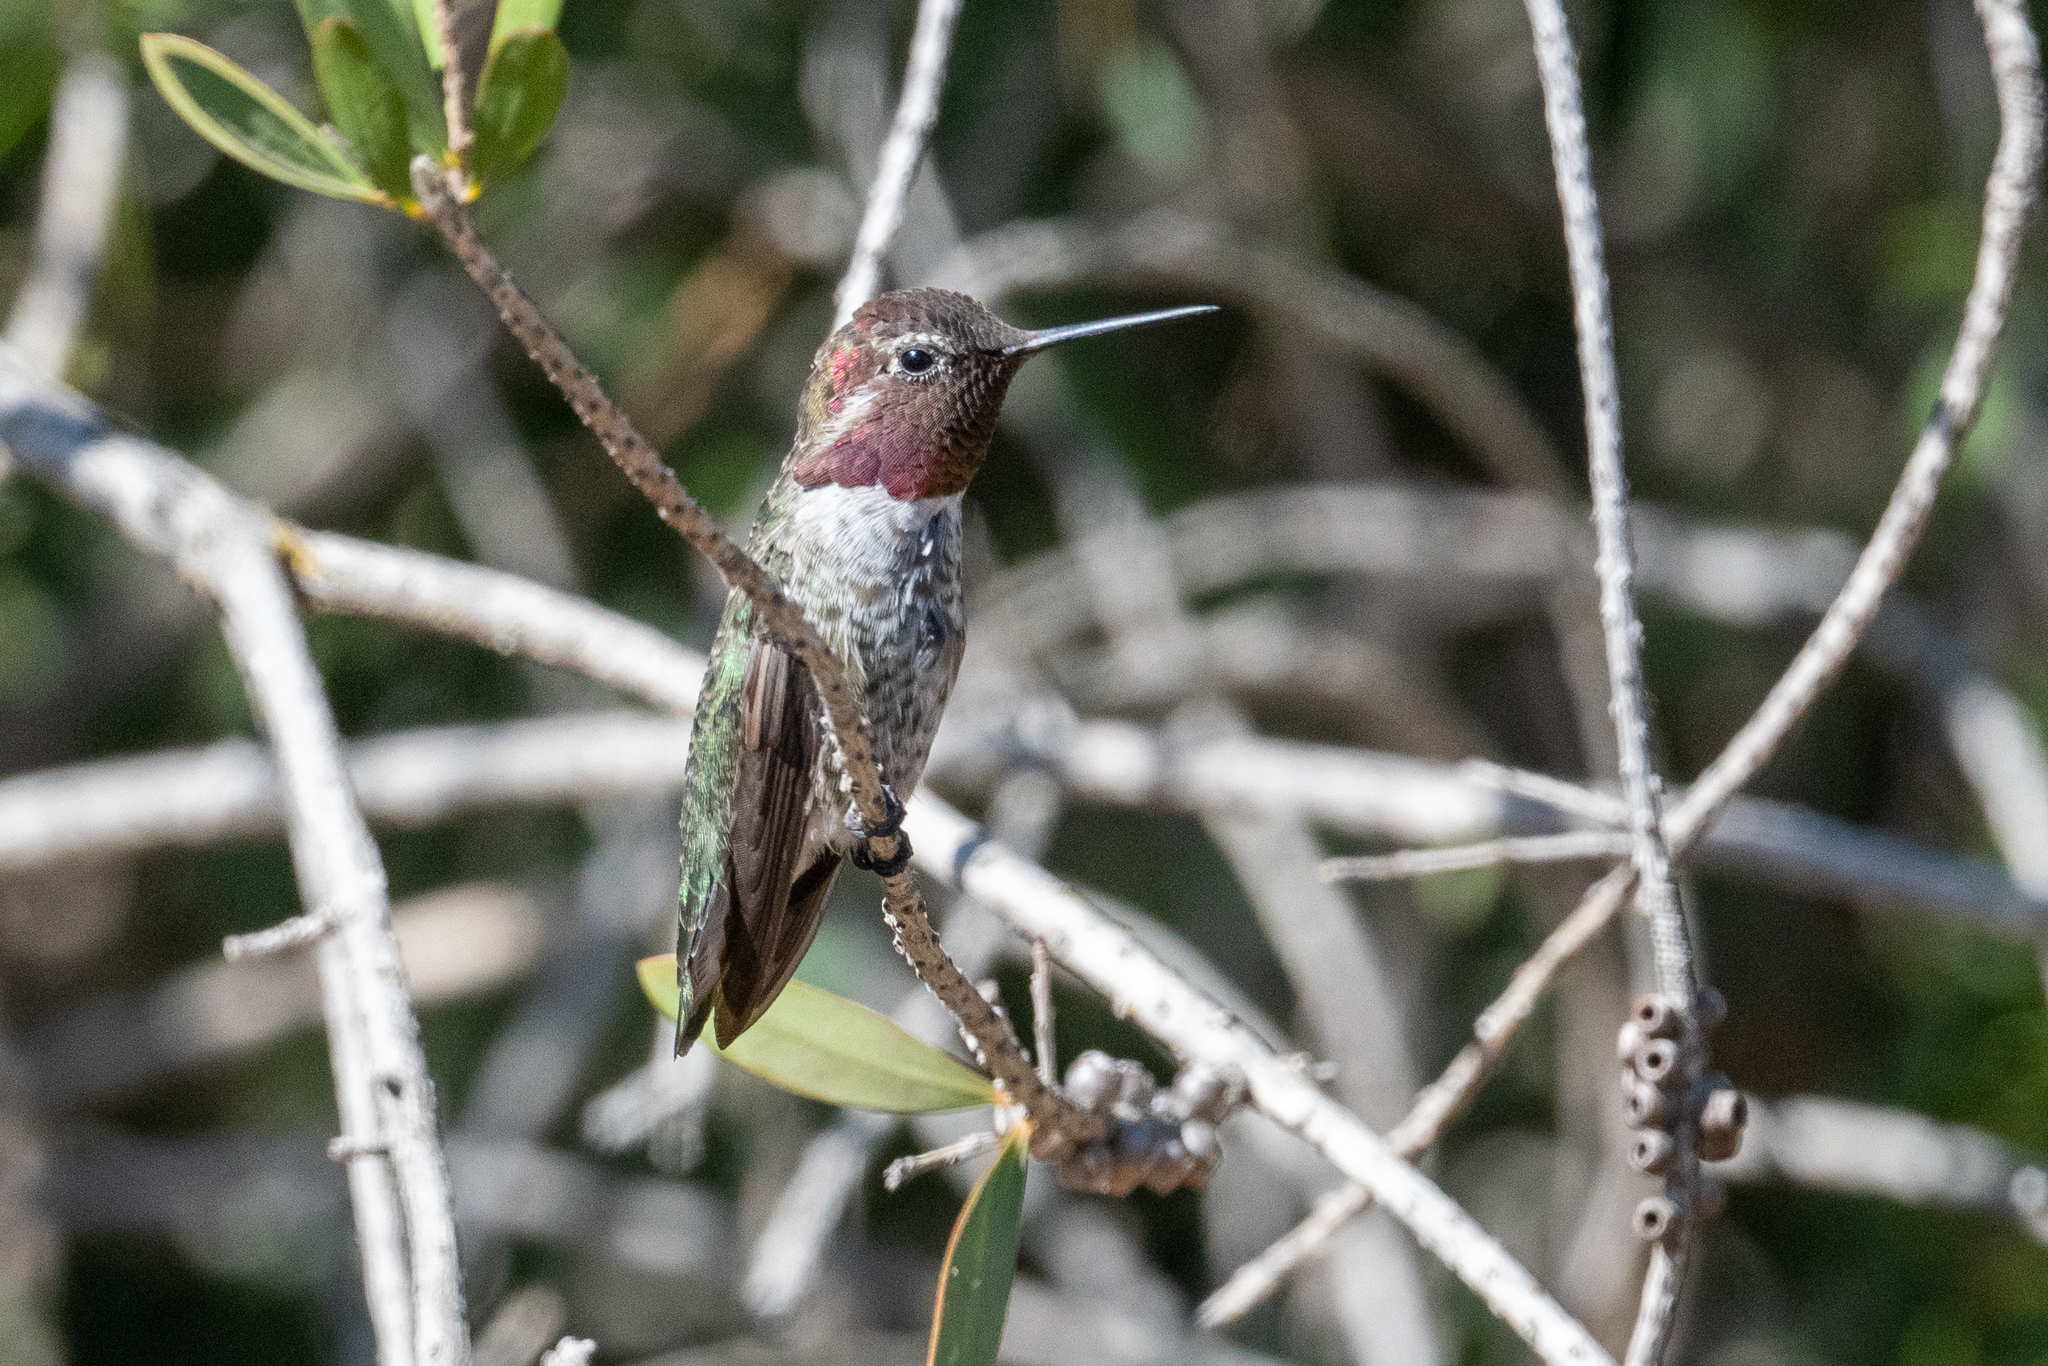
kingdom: Animalia
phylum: Chordata
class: Aves
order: Apodiformes
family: Trochilidae
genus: Calypte
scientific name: Calypte anna
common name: Anna's hummingbird
